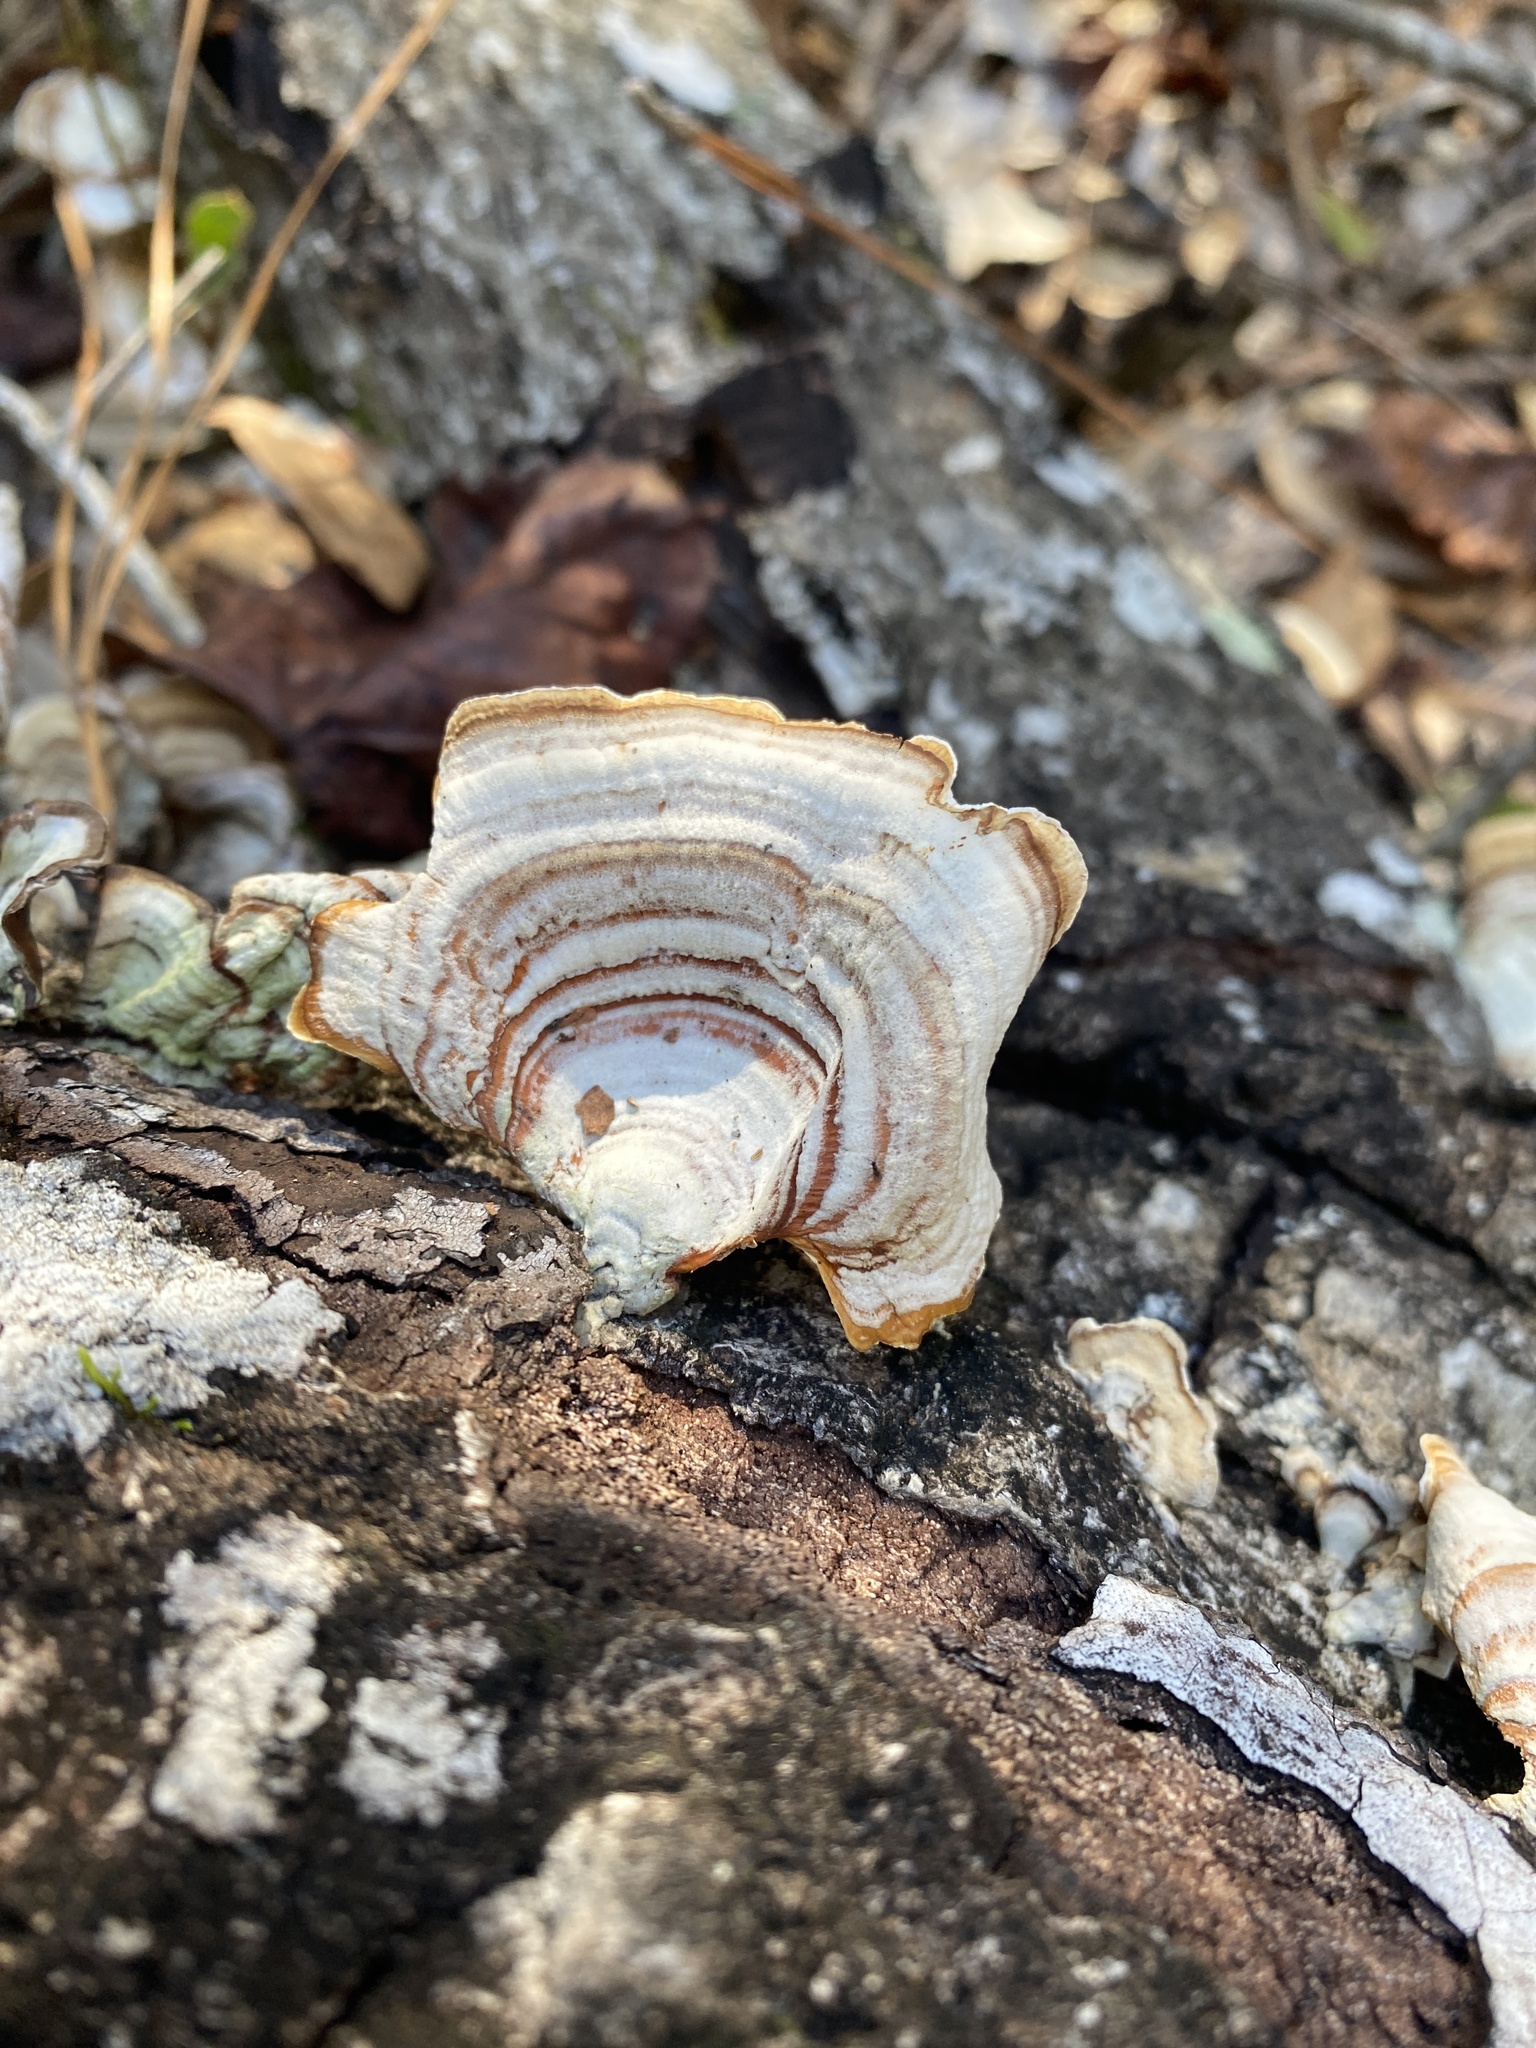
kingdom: Fungi
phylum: Basidiomycota
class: Agaricomycetes
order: Russulales
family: Stereaceae
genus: Stereum
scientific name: Stereum lobatum
